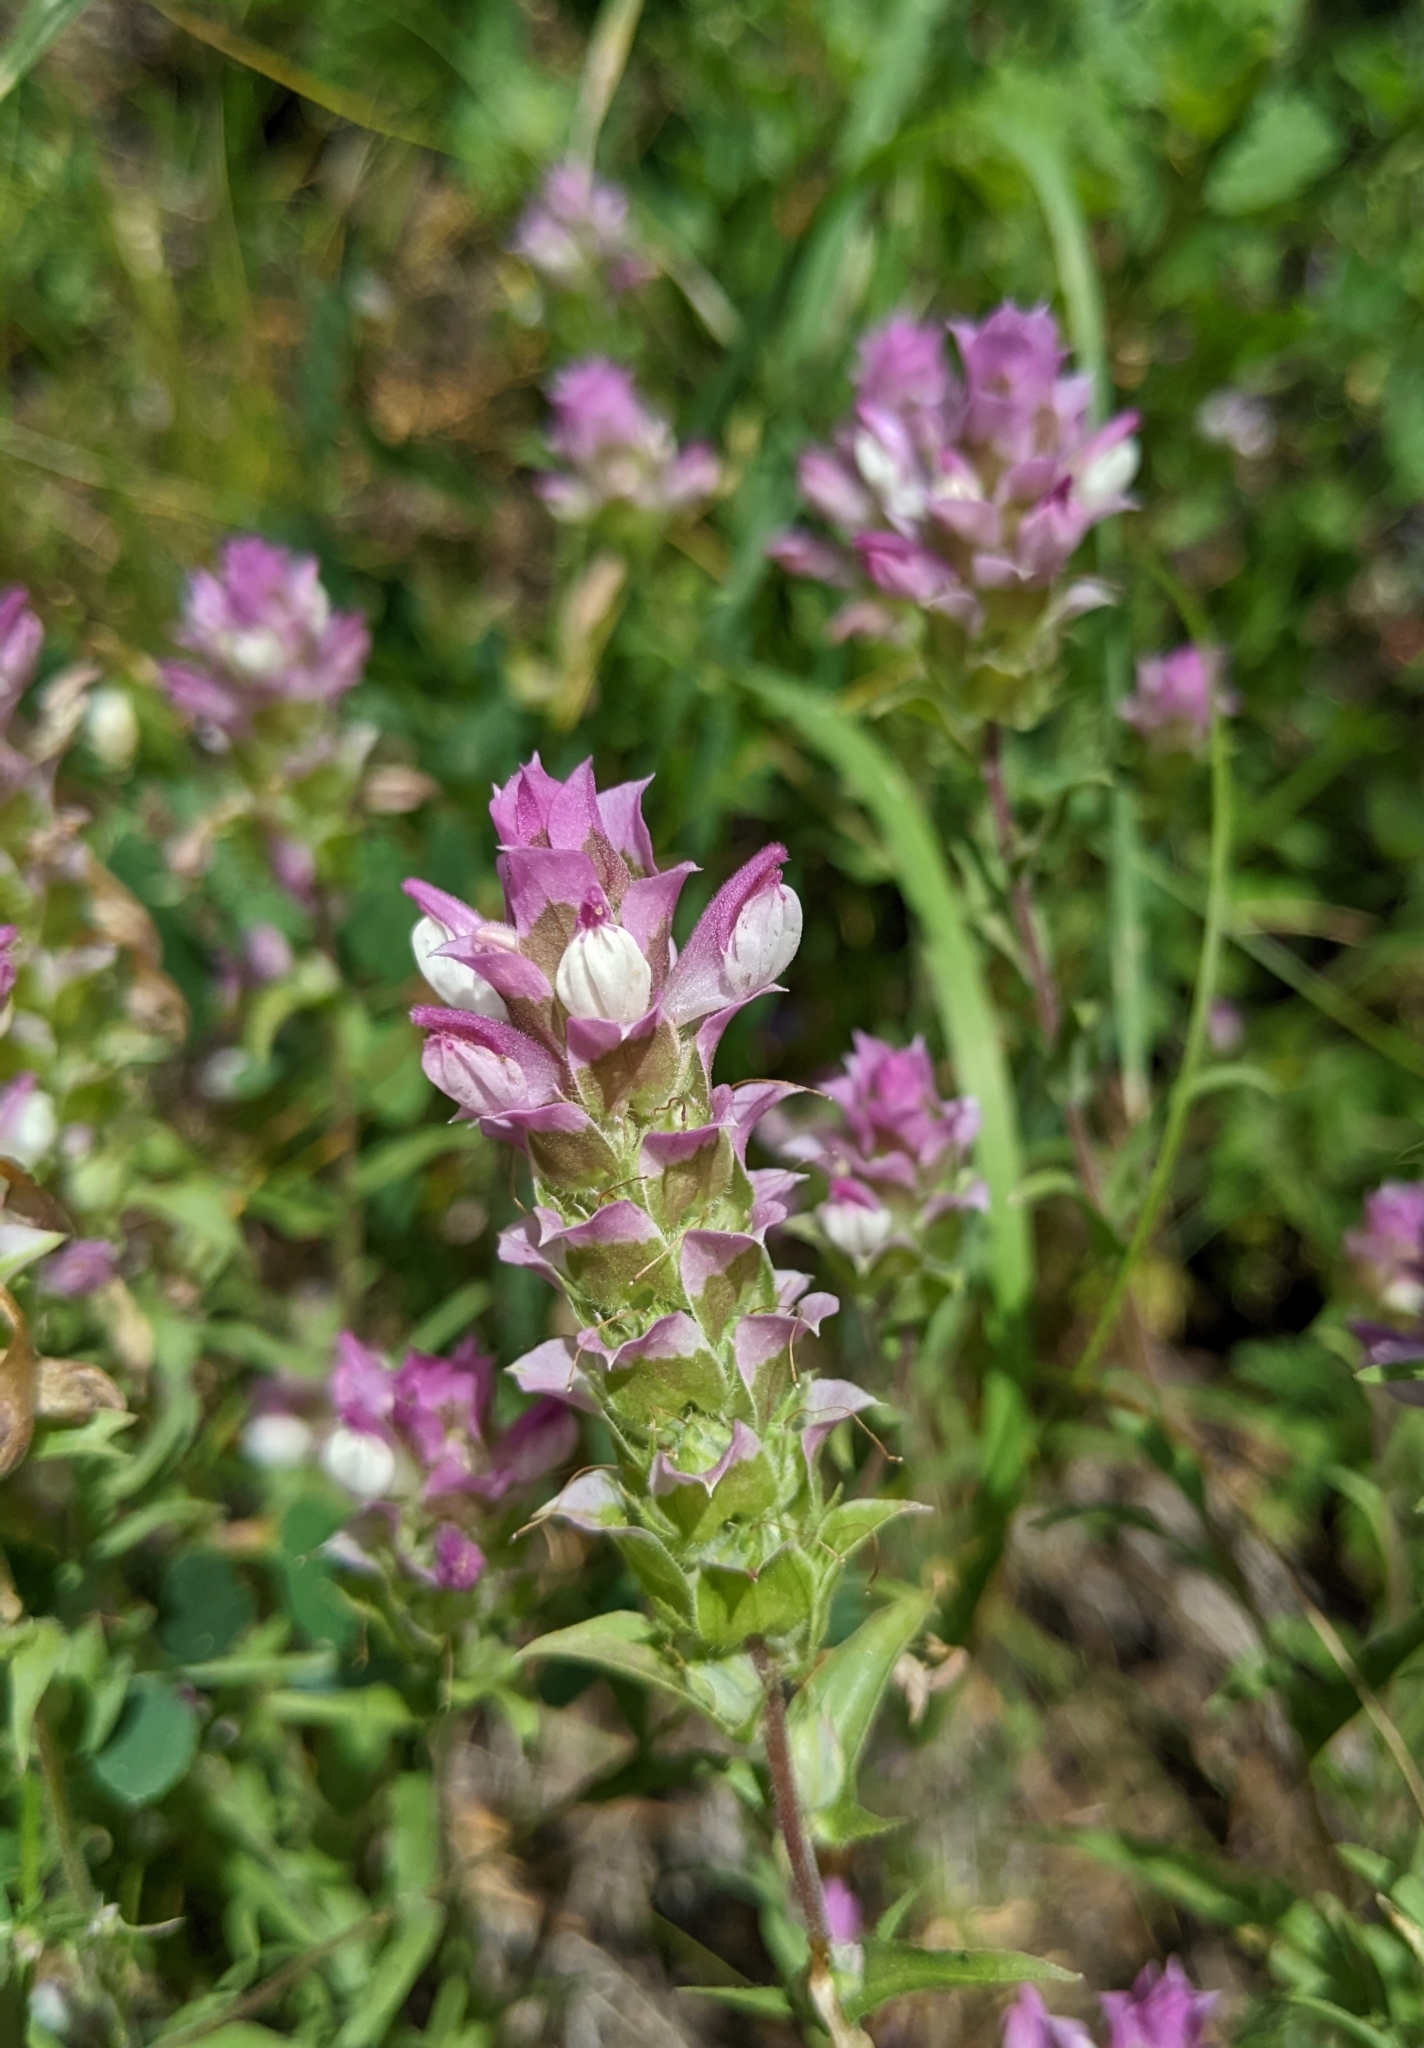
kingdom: Plantae
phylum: Tracheophyta
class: Magnoliopsida
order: Lamiales
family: Orobanchaceae
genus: Orthocarpus
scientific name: Orthocarpus cuspidatus
